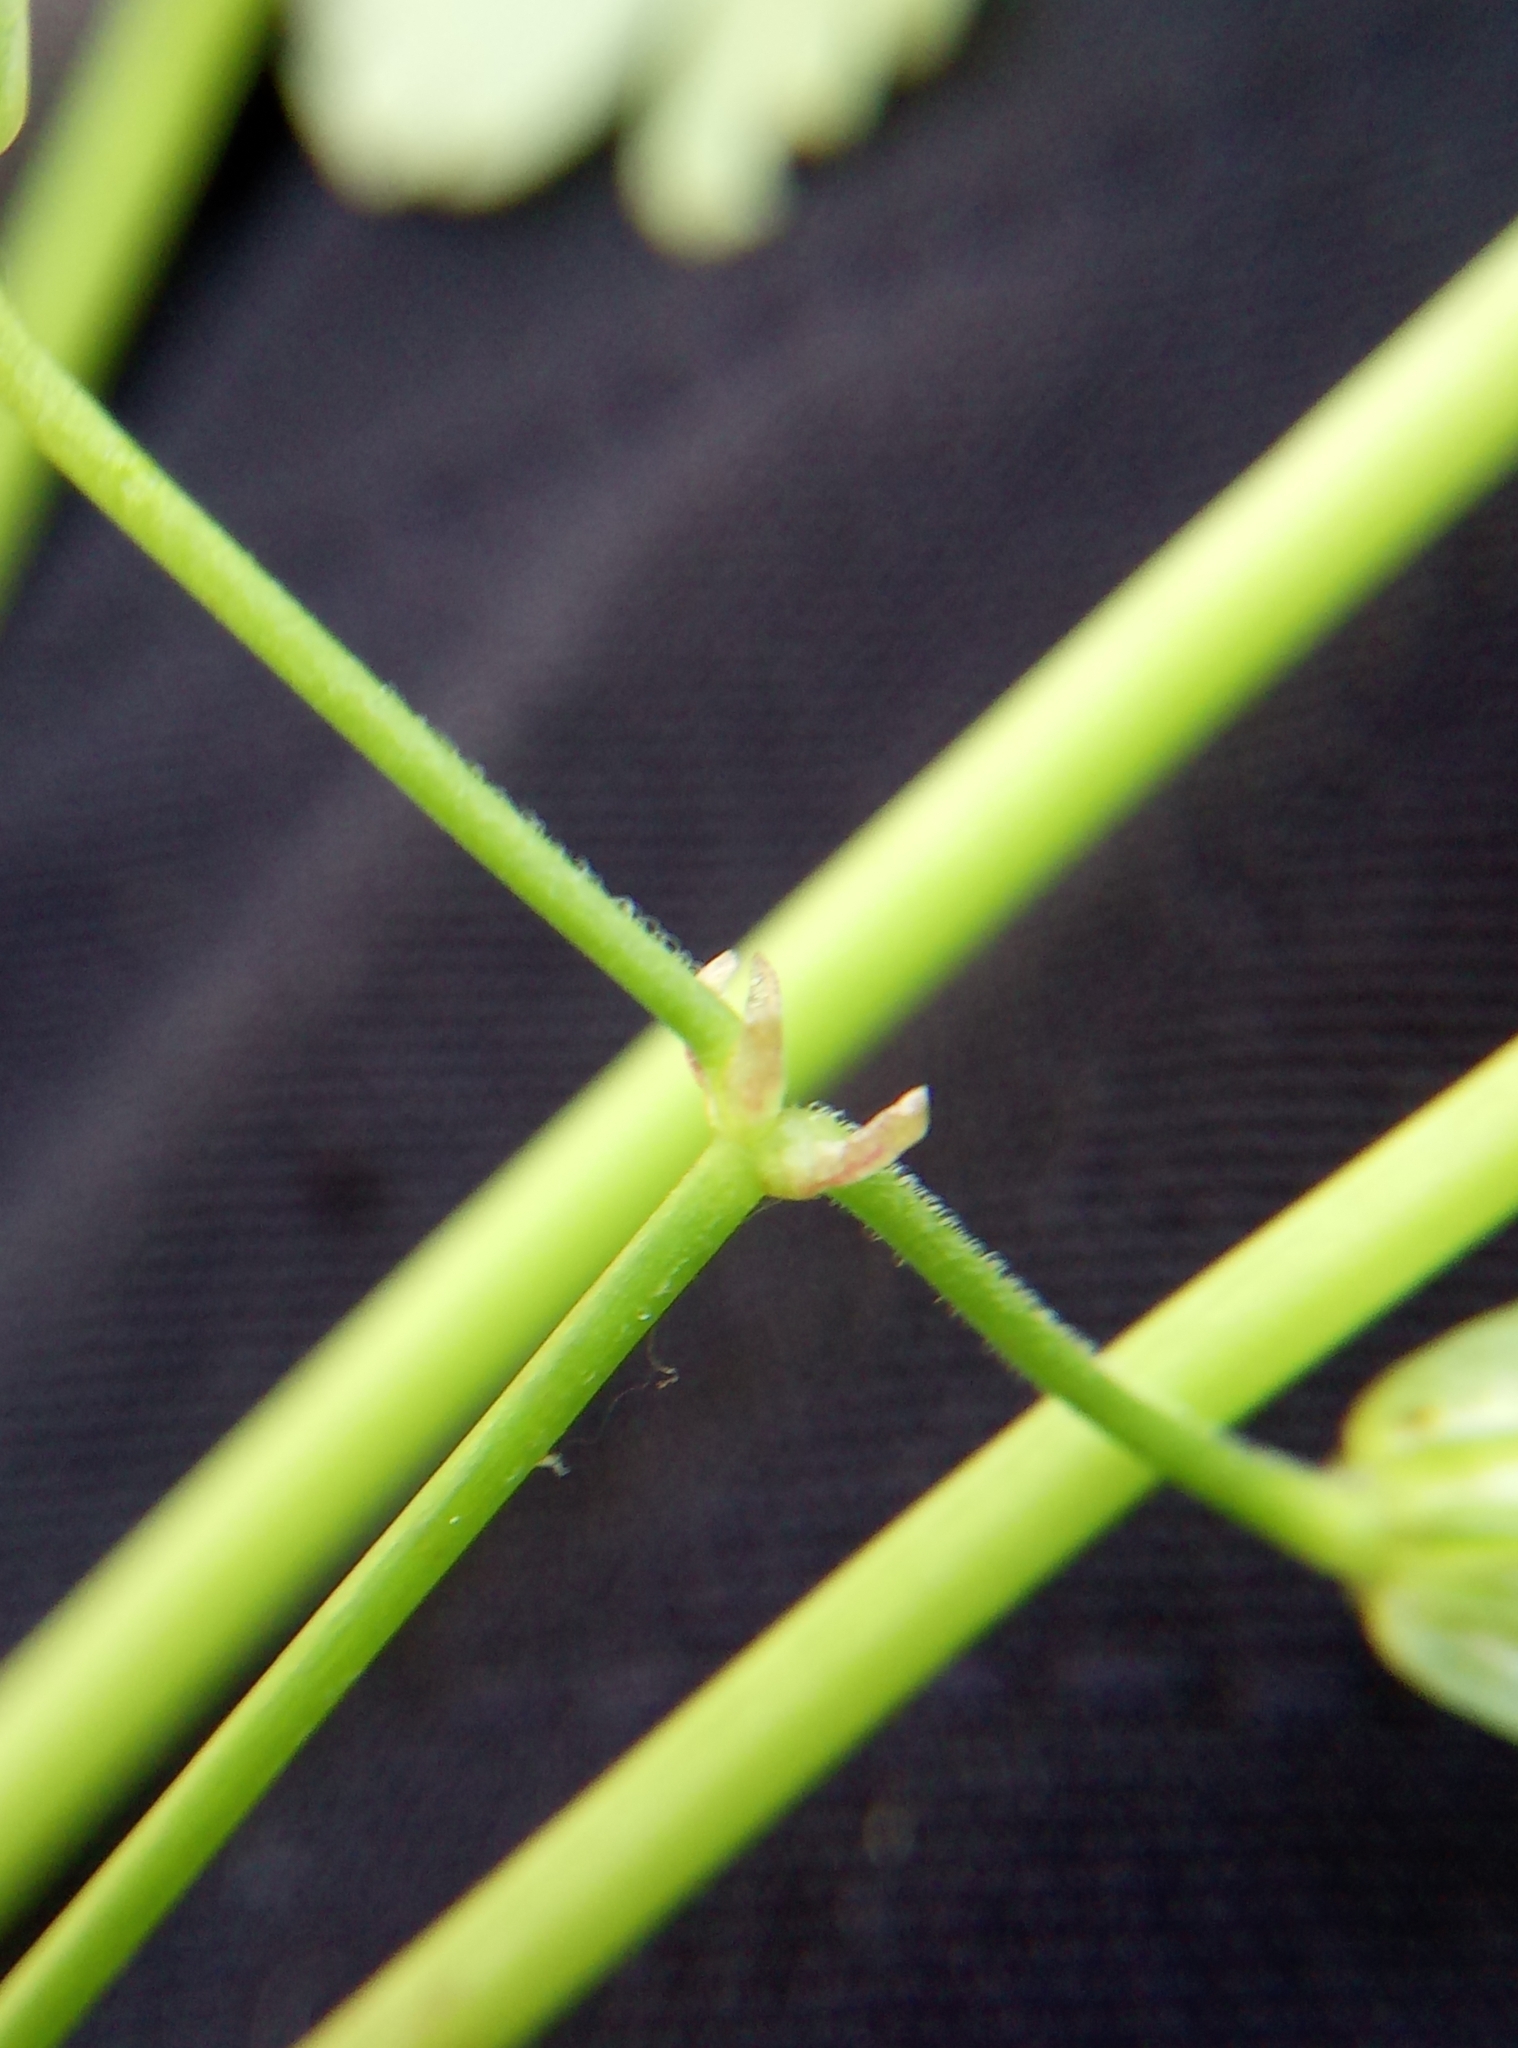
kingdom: Plantae
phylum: Tracheophyta
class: Magnoliopsida
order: Geraniales
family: Geraniaceae
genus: Geranium
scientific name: Geranium lucidum
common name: Shining crane's-bill
